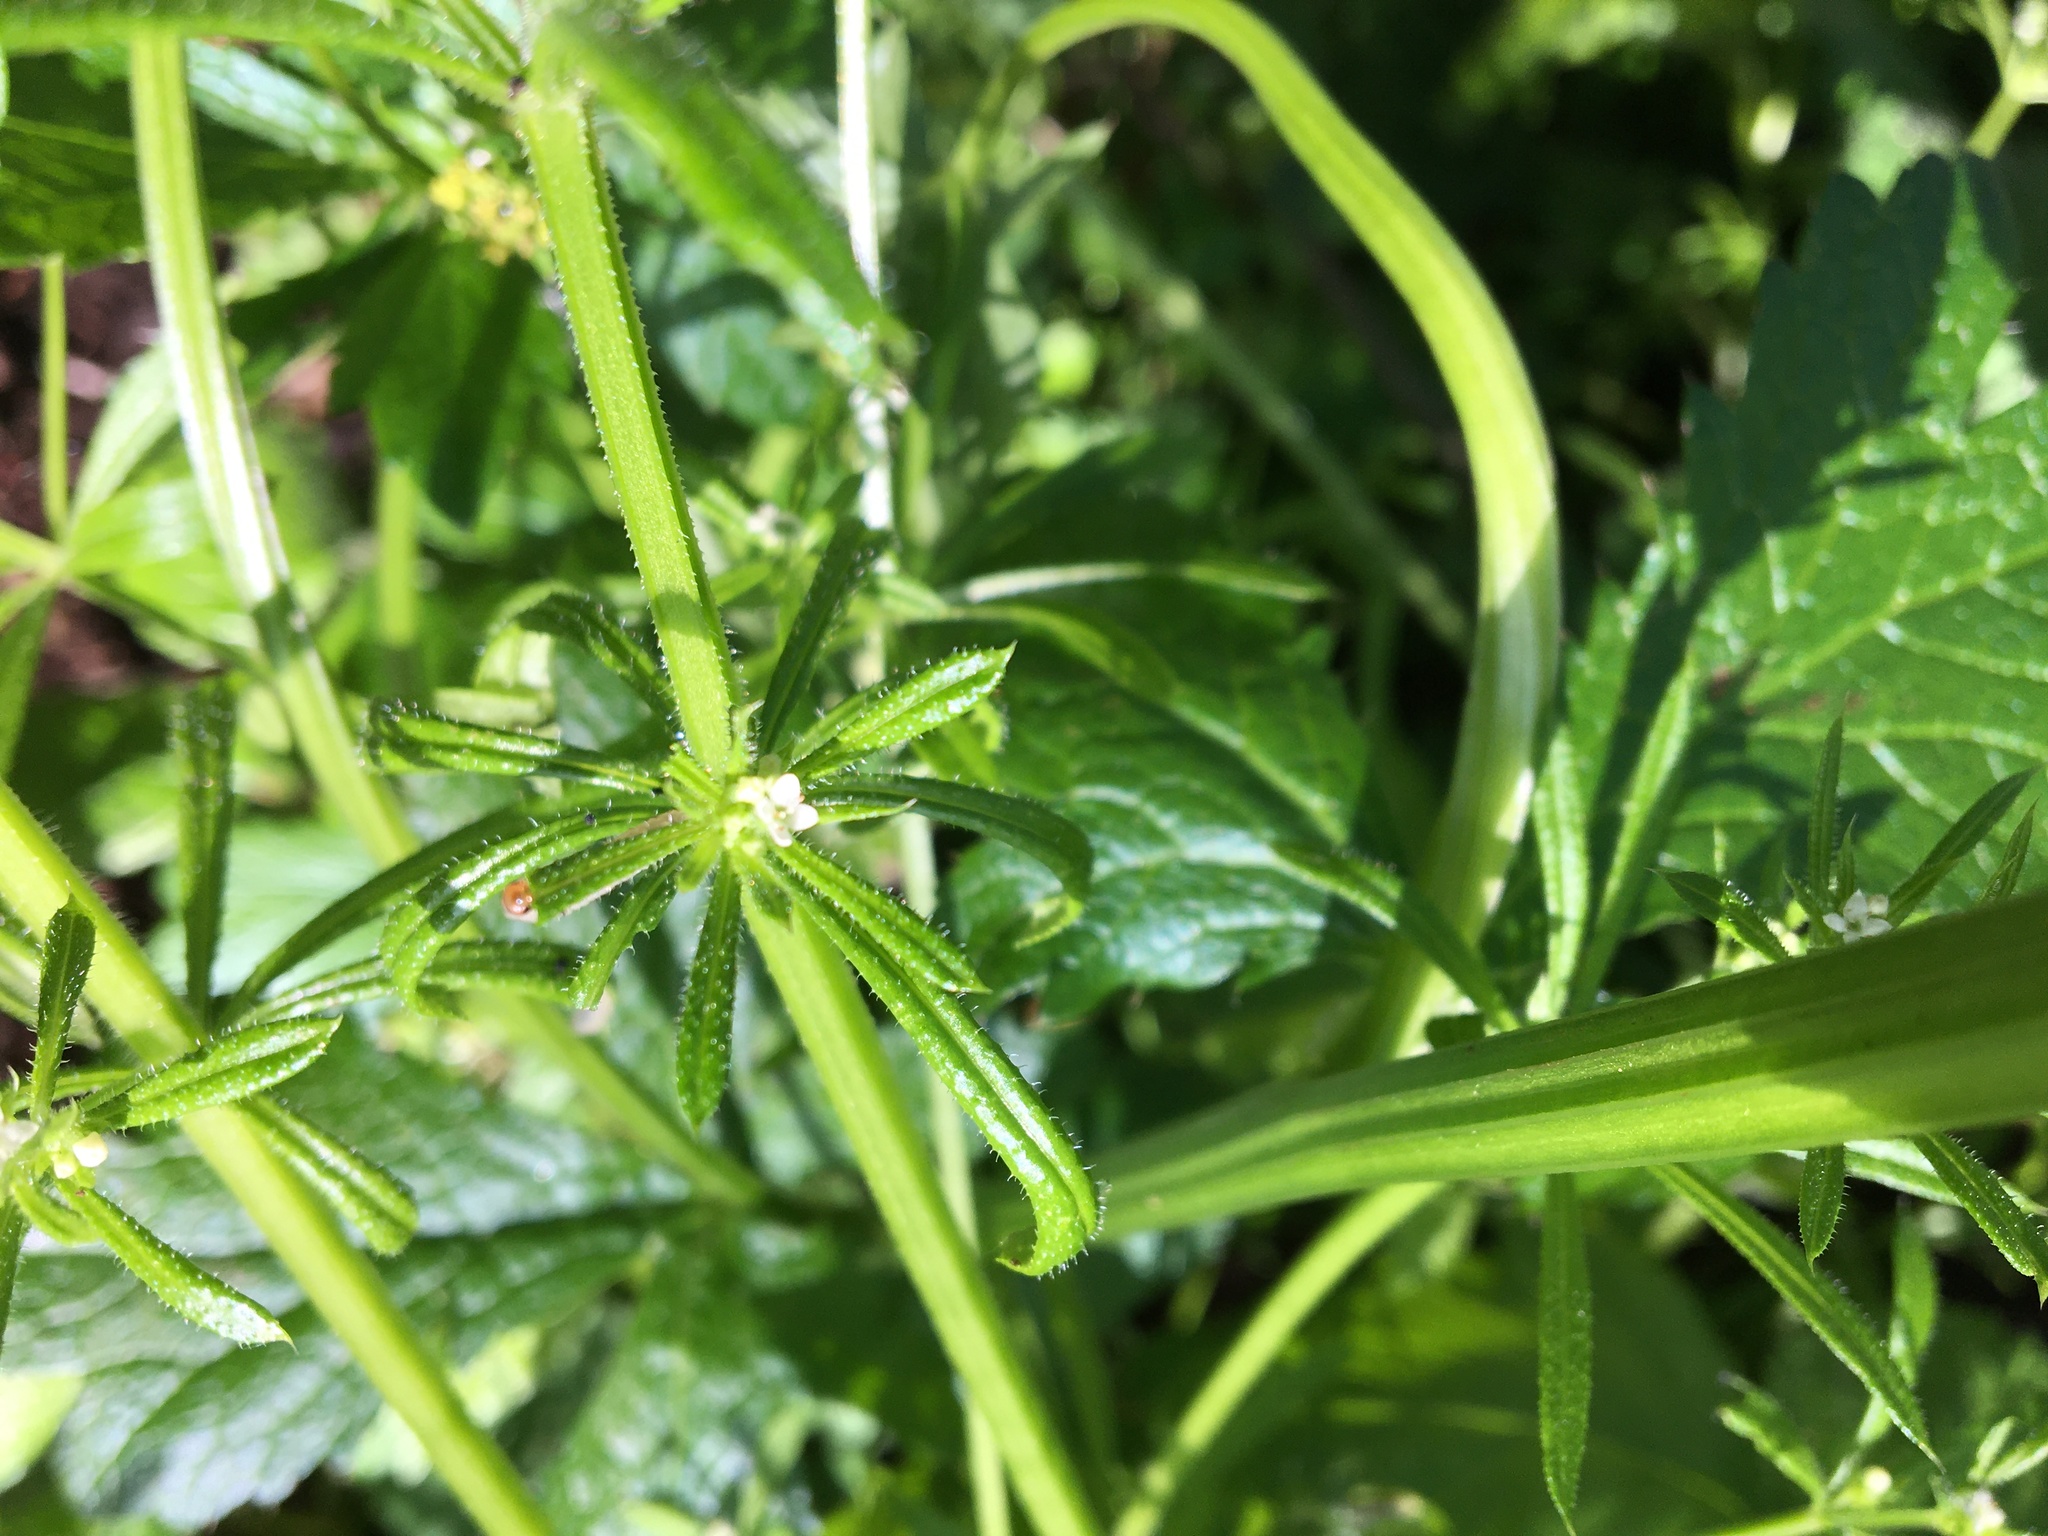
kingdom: Plantae
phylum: Tracheophyta
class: Magnoliopsida
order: Gentianales
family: Rubiaceae
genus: Galium
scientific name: Galium aparine
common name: Cleavers
